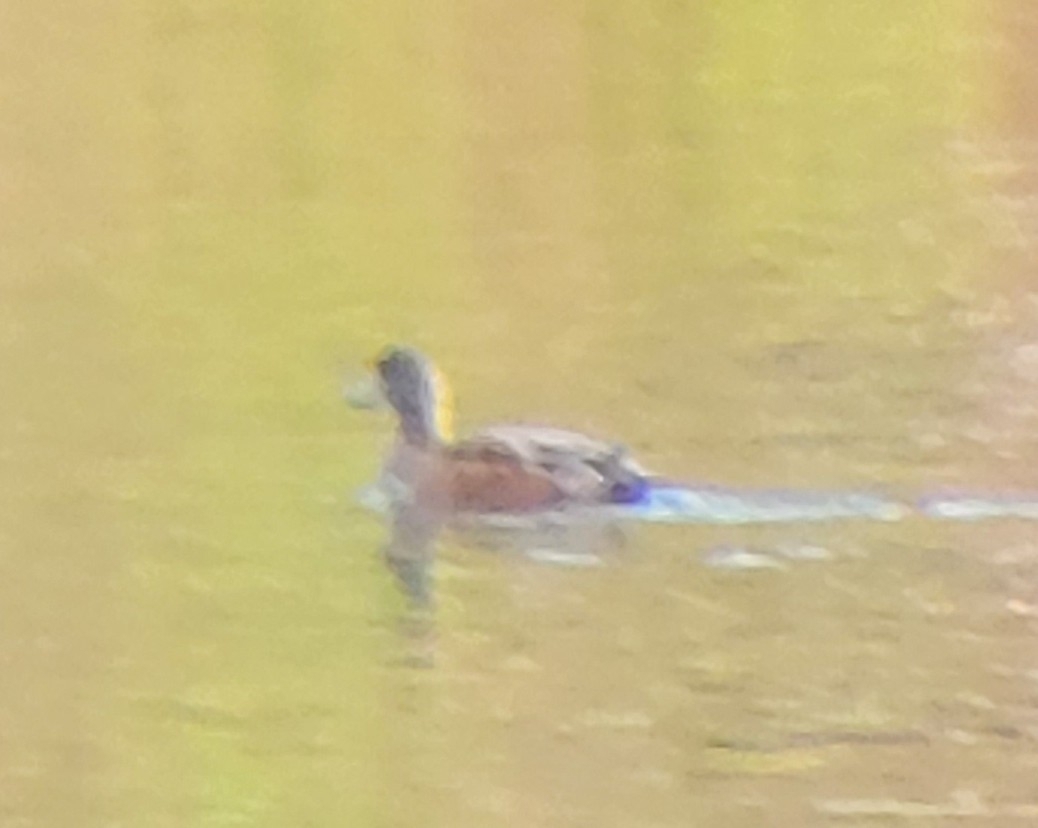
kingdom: Animalia
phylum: Chordata
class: Aves
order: Anseriformes
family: Anatidae
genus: Mareca
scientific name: Mareca americana
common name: American wigeon
